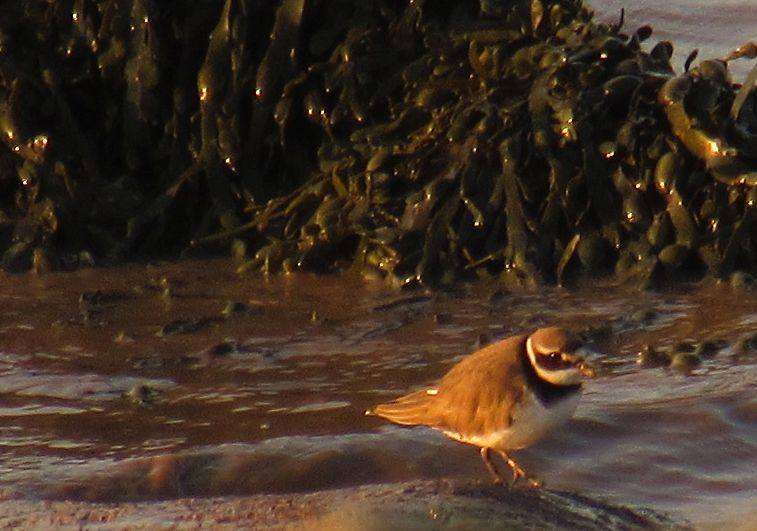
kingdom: Animalia
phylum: Chordata
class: Aves
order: Charadriiformes
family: Charadriidae
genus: Charadrius
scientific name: Charadrius hiaticula
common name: Common ringed plover
